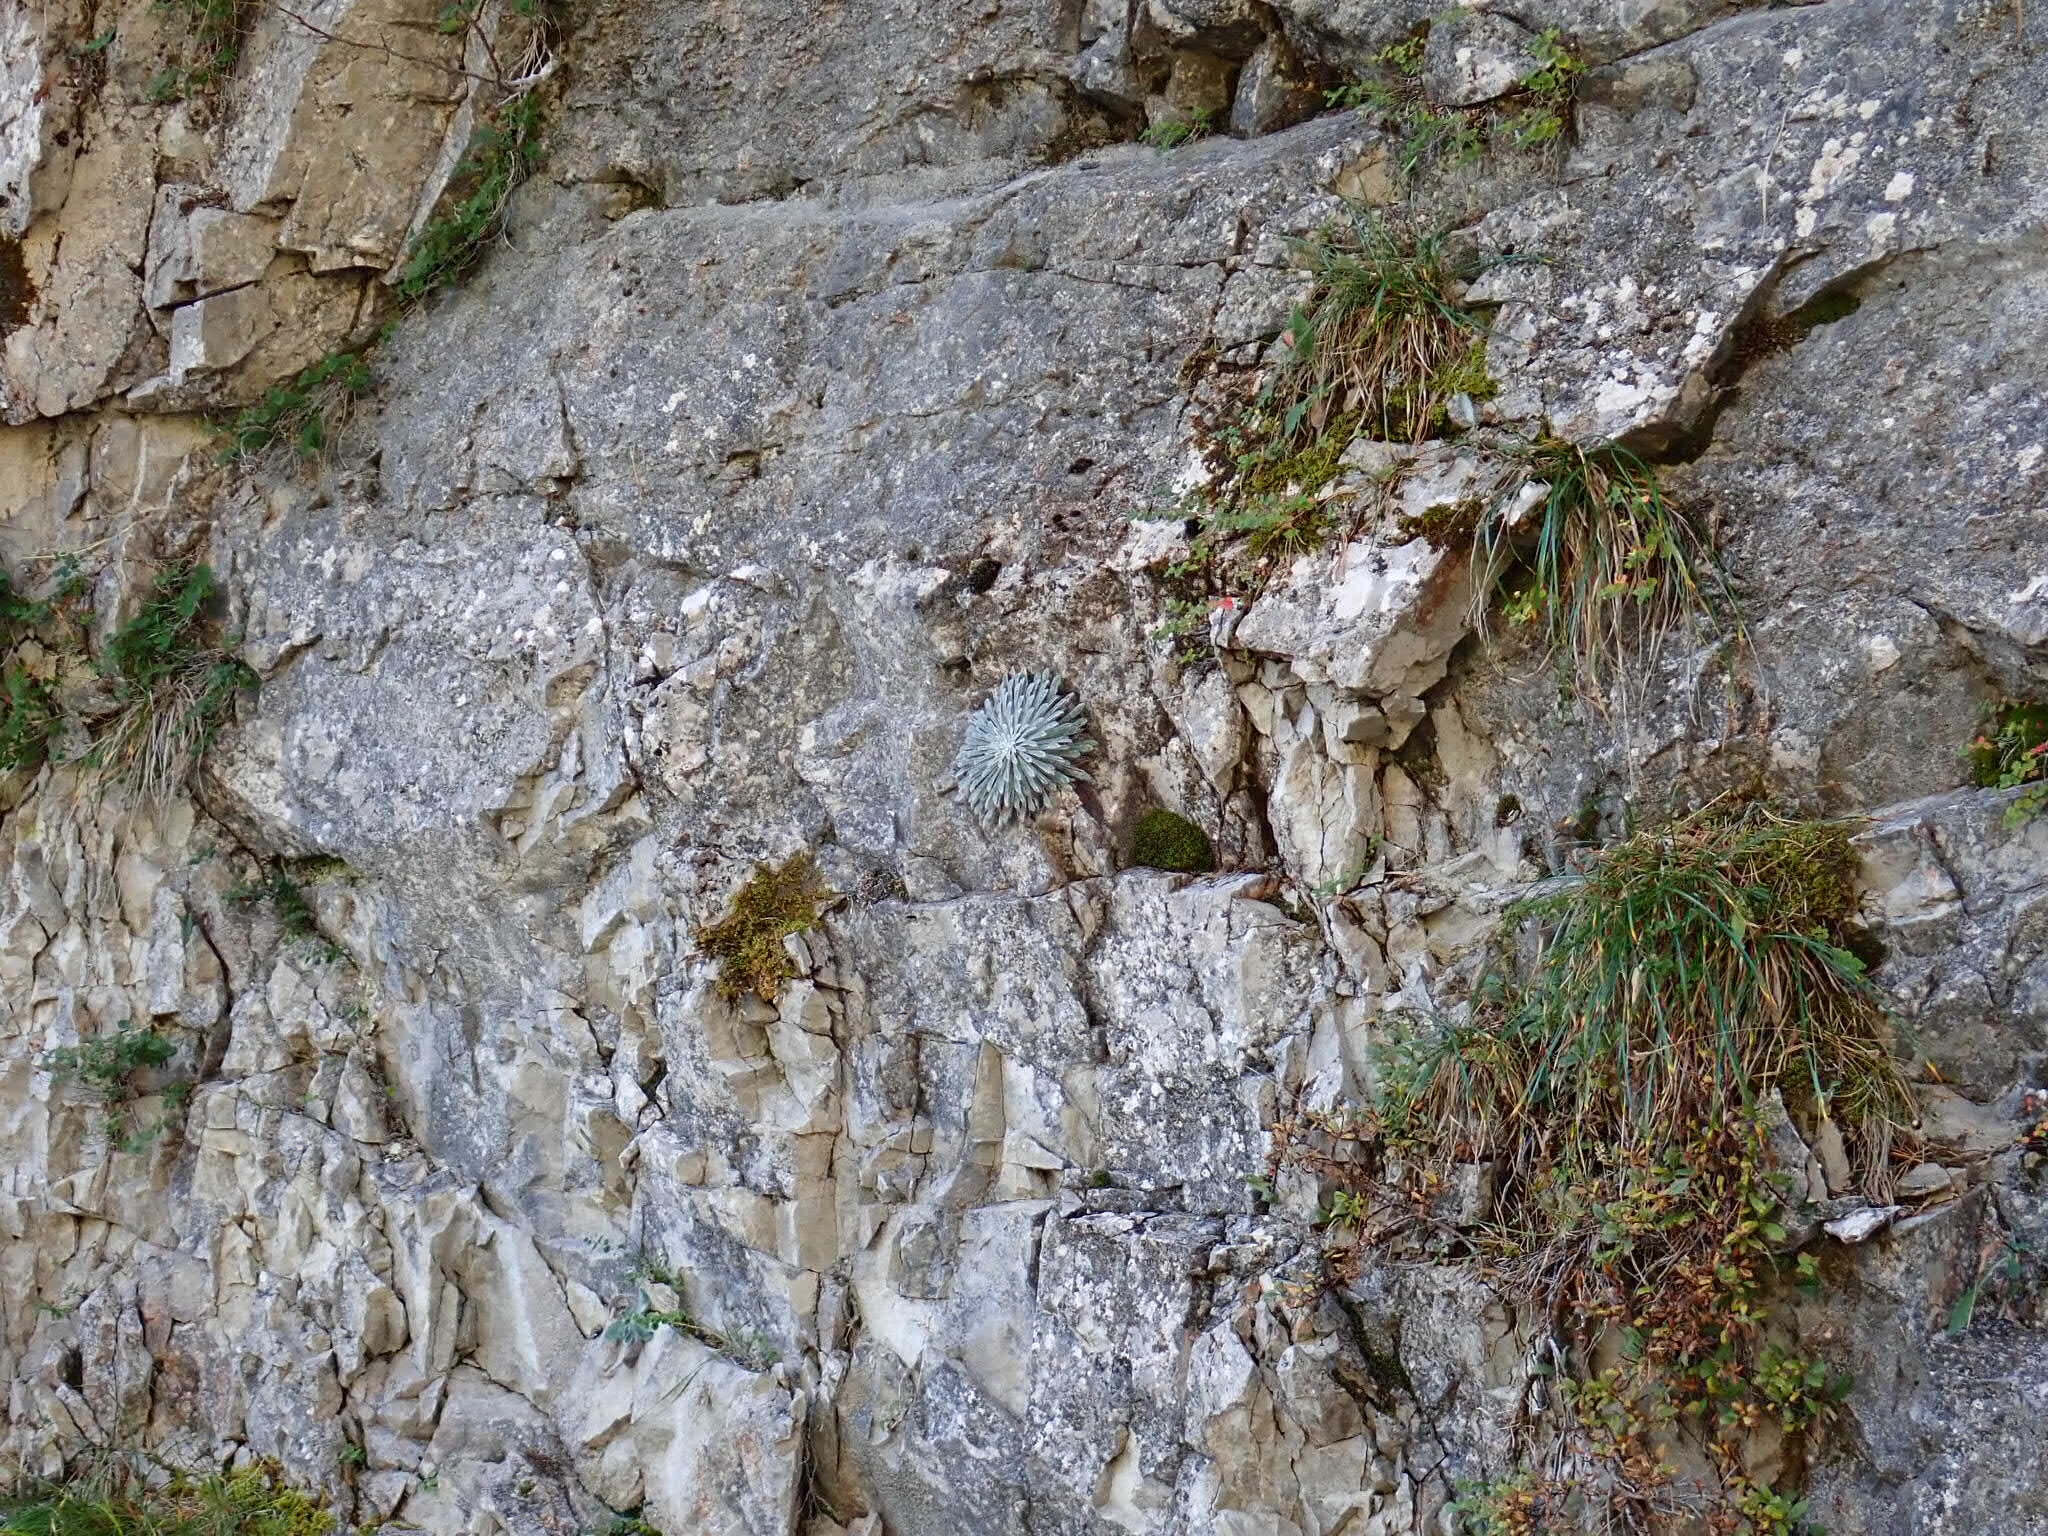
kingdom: Plantae
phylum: Tracheophyta
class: Magnoliopsida
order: Saxifragales
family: Saxifragaceae
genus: Saxifraga
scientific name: Saxifraga longifolia
